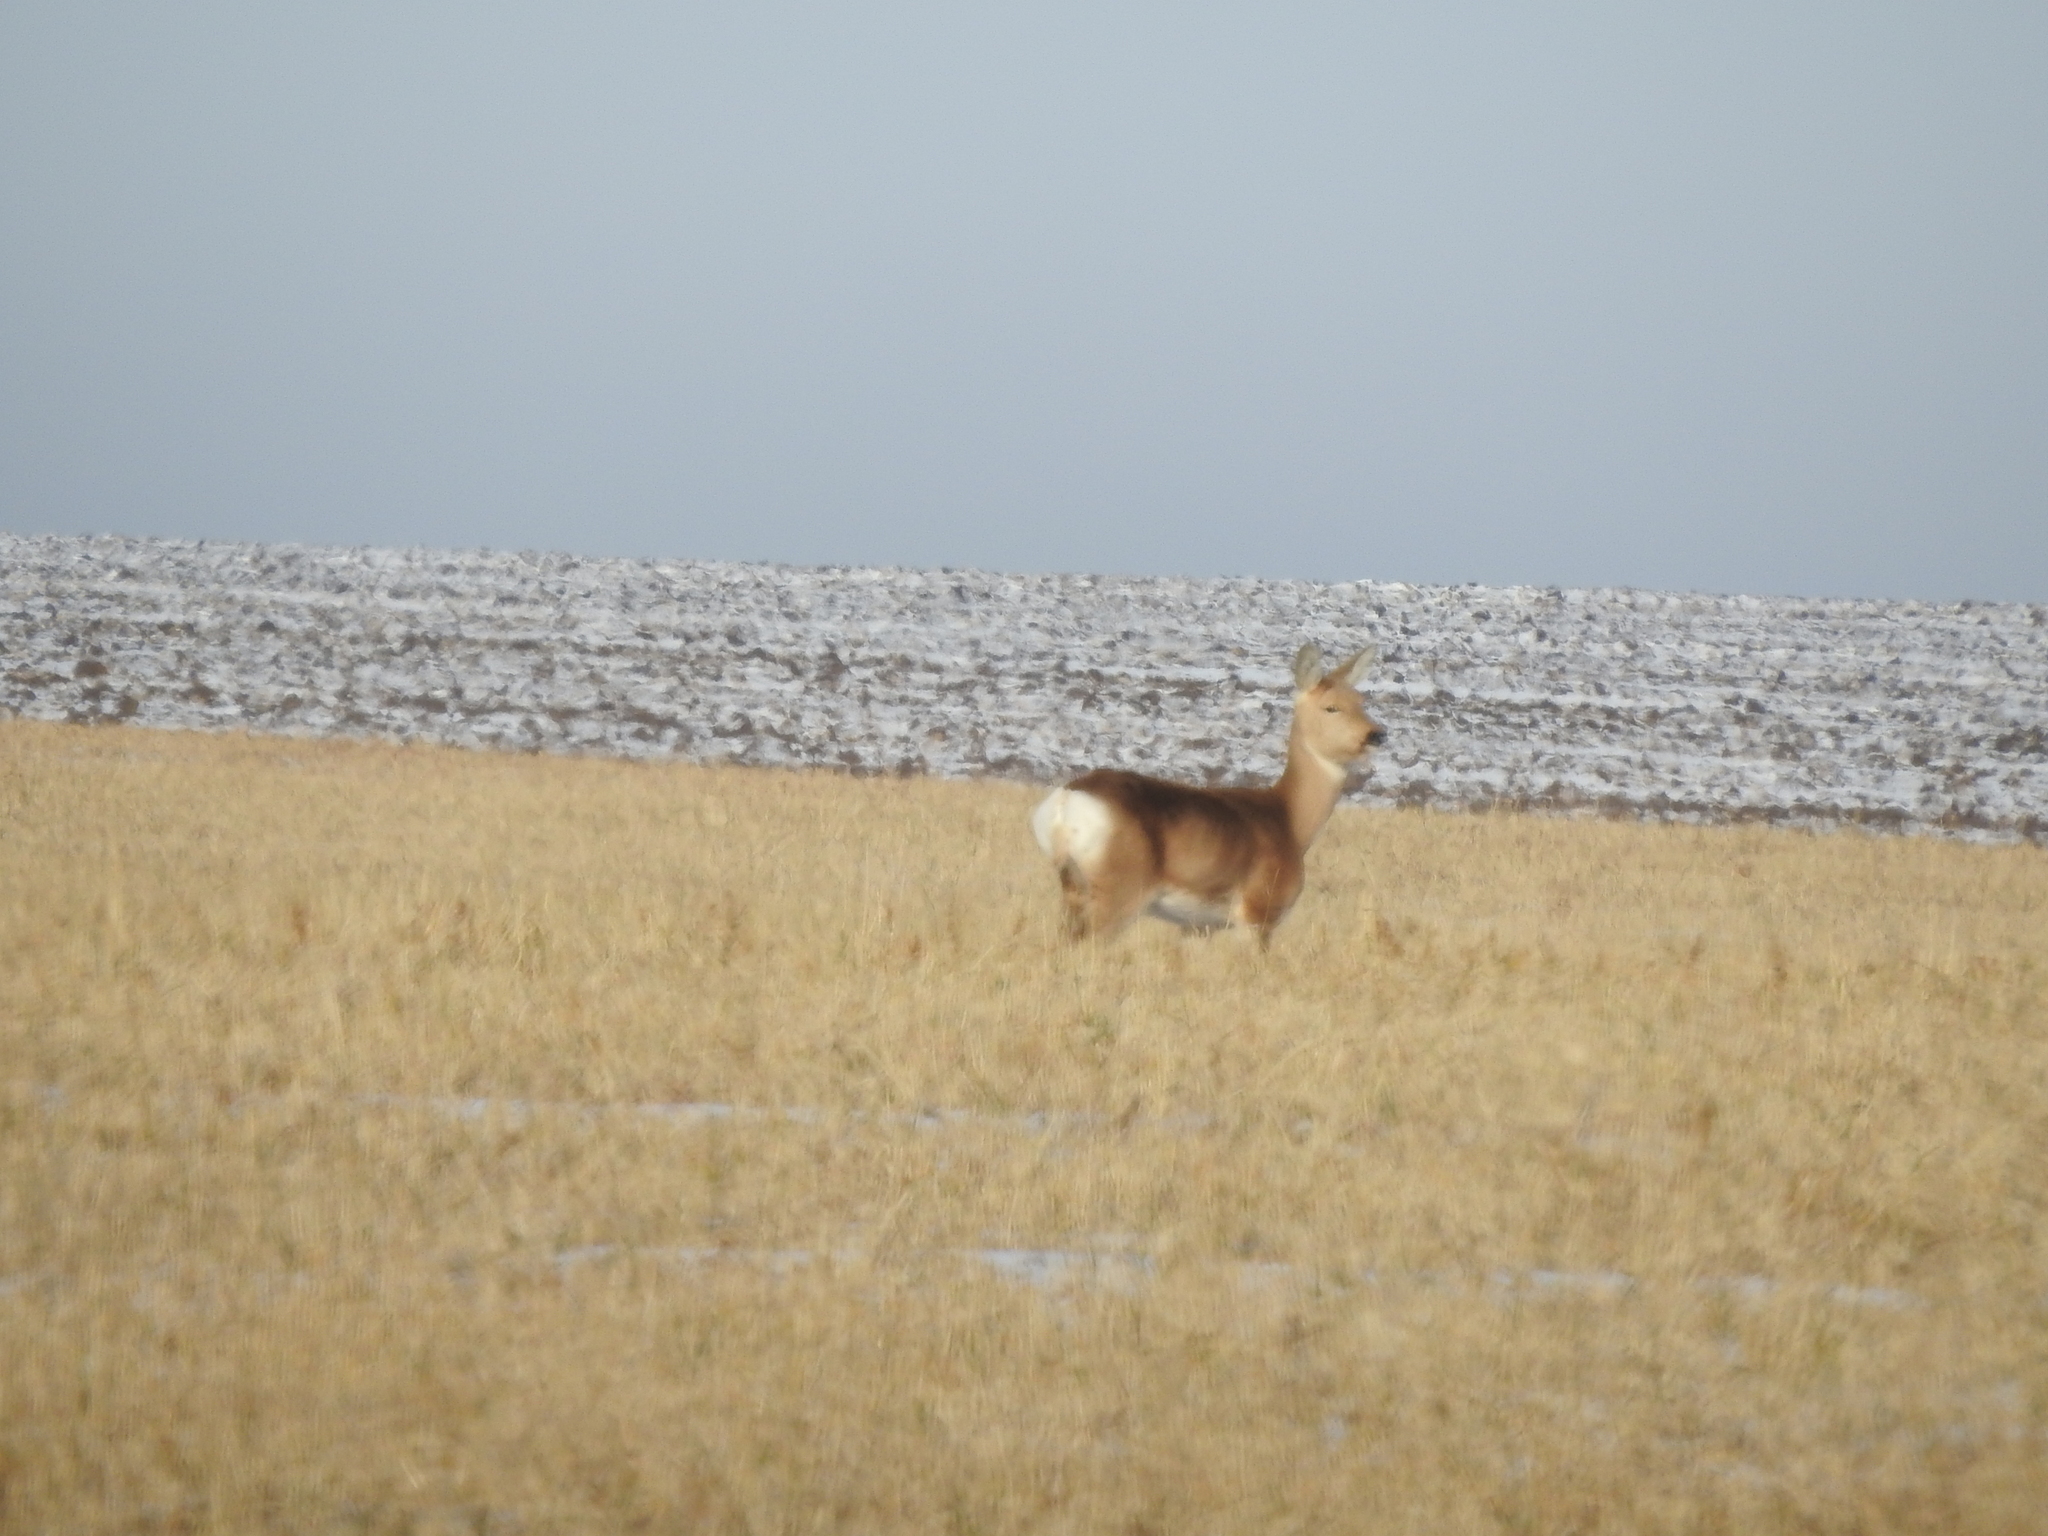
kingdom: Animalia
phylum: Chordata
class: Mammalia
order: Artiodactyla
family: Cervidae
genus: Capreolus
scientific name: Capreolus pygargus
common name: Siberian roe
